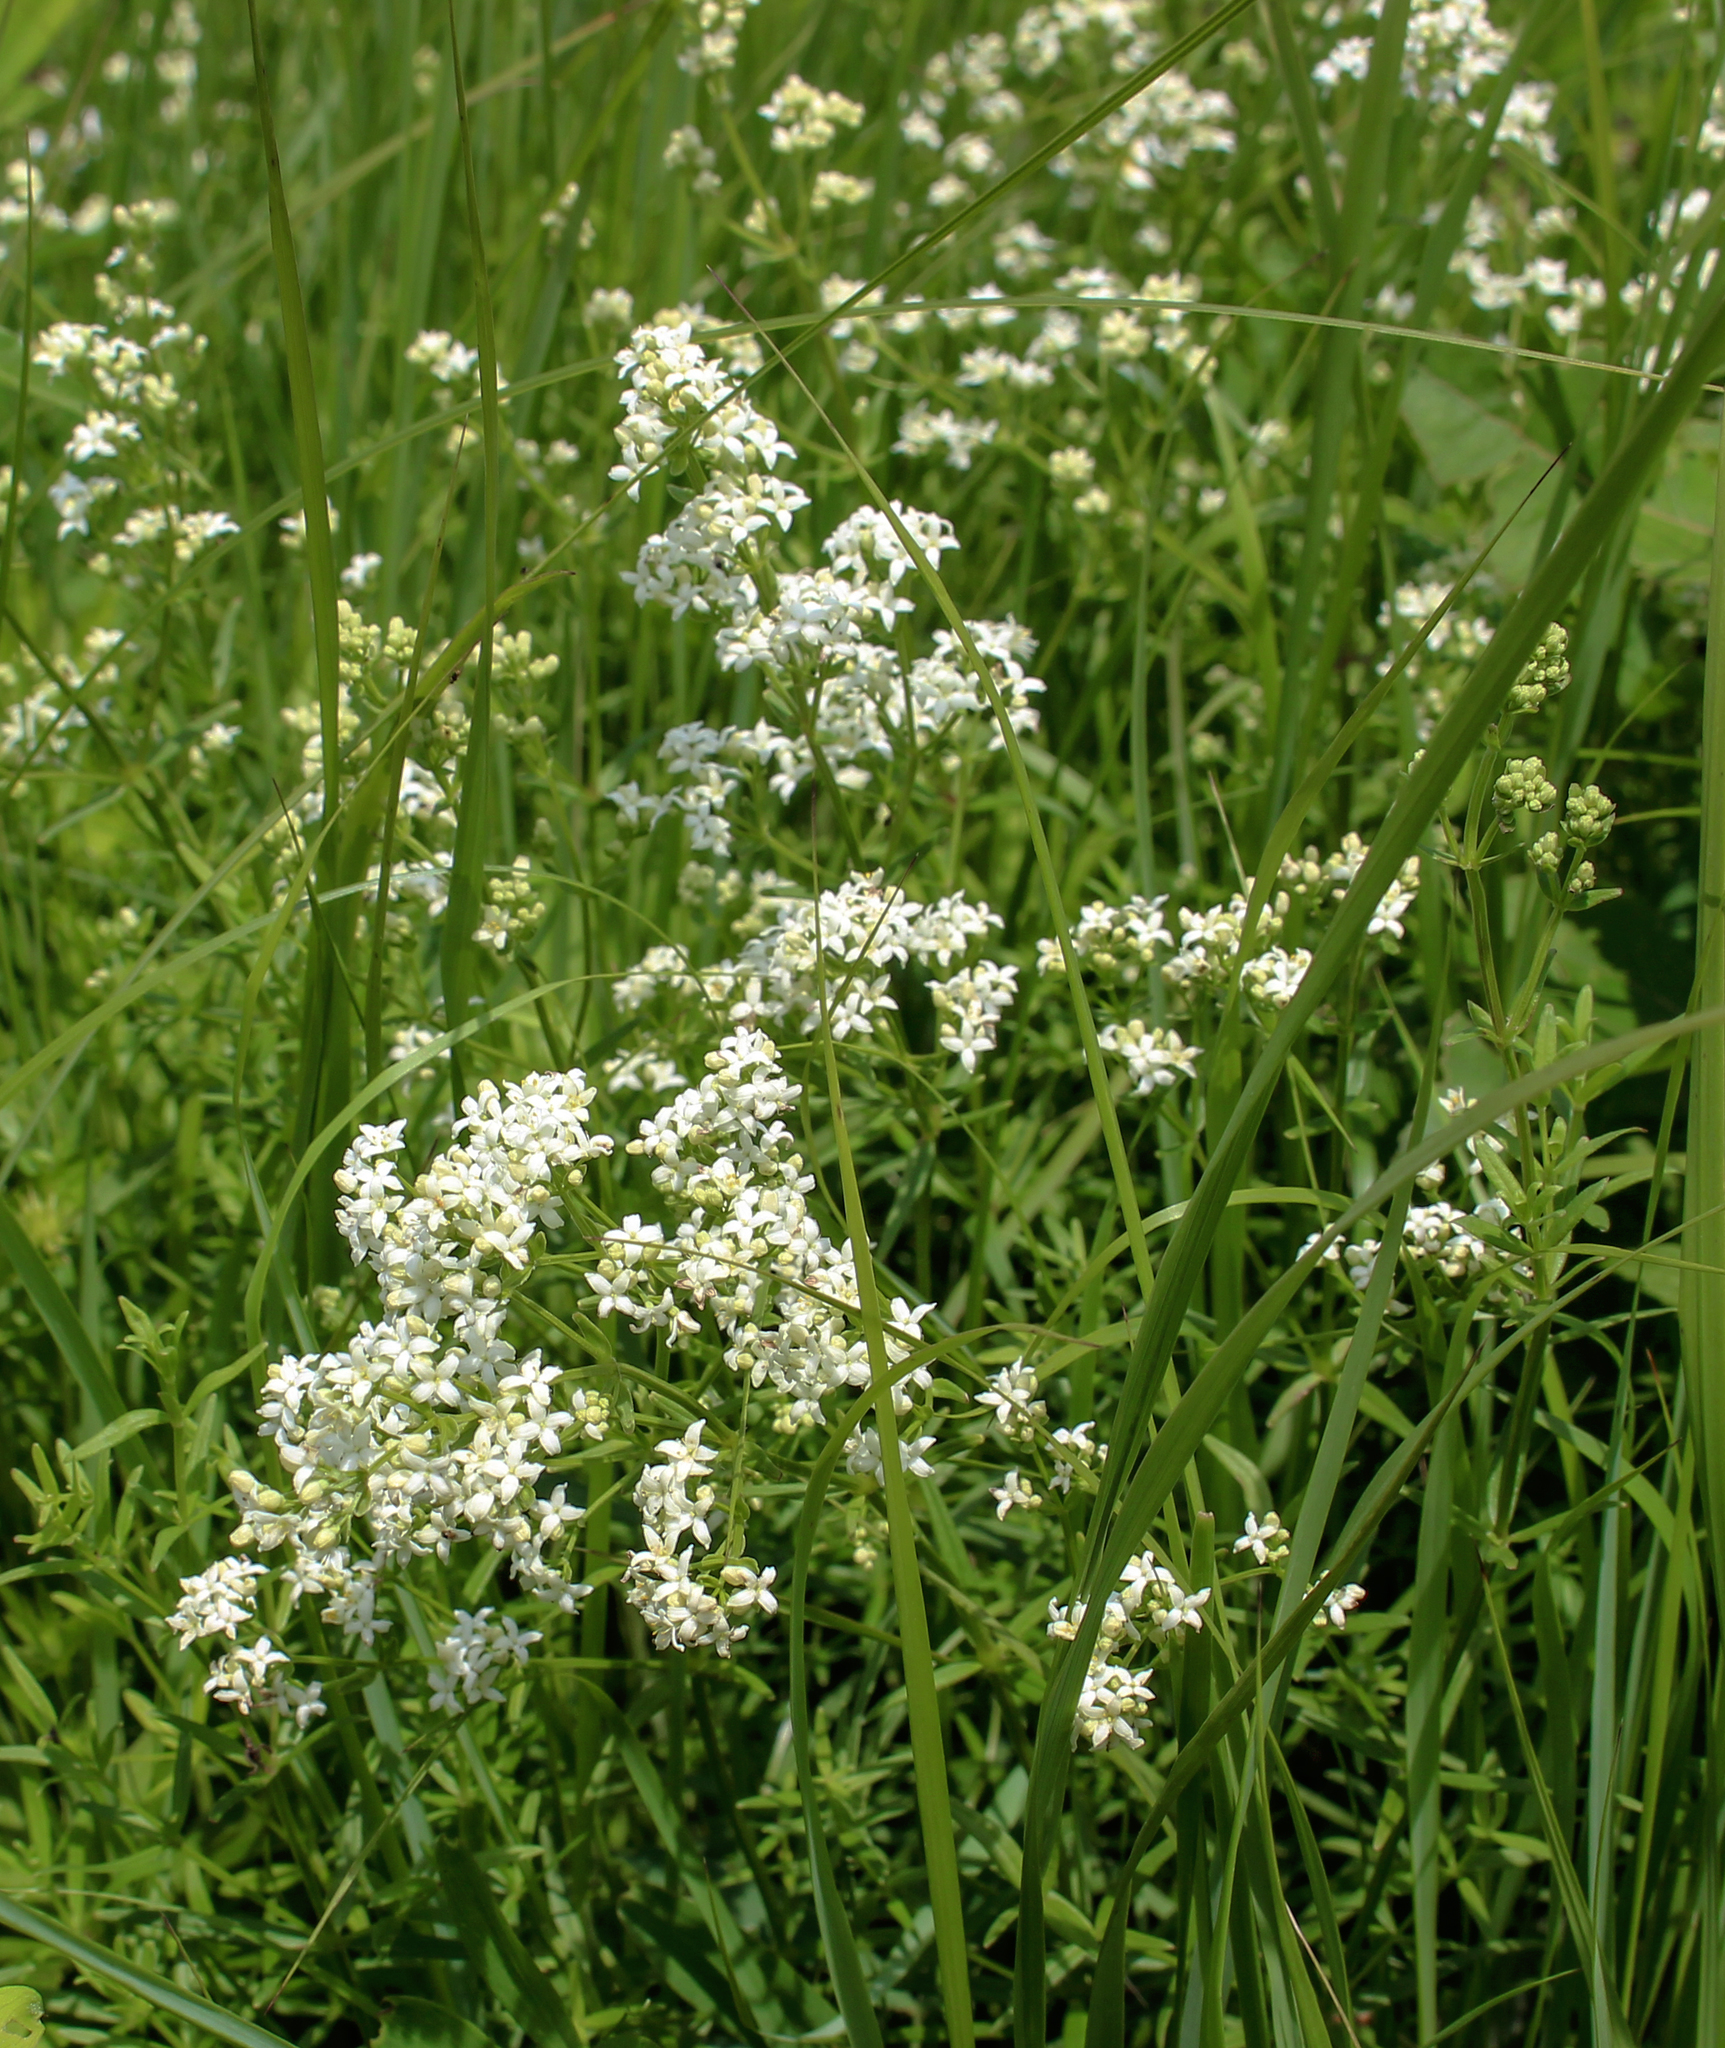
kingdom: Plantae
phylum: Tracheophyta
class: Magnoliopsida
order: Gentianales
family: Rubiaceae
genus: Galium
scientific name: Galium boreale
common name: Northern bedstraw
